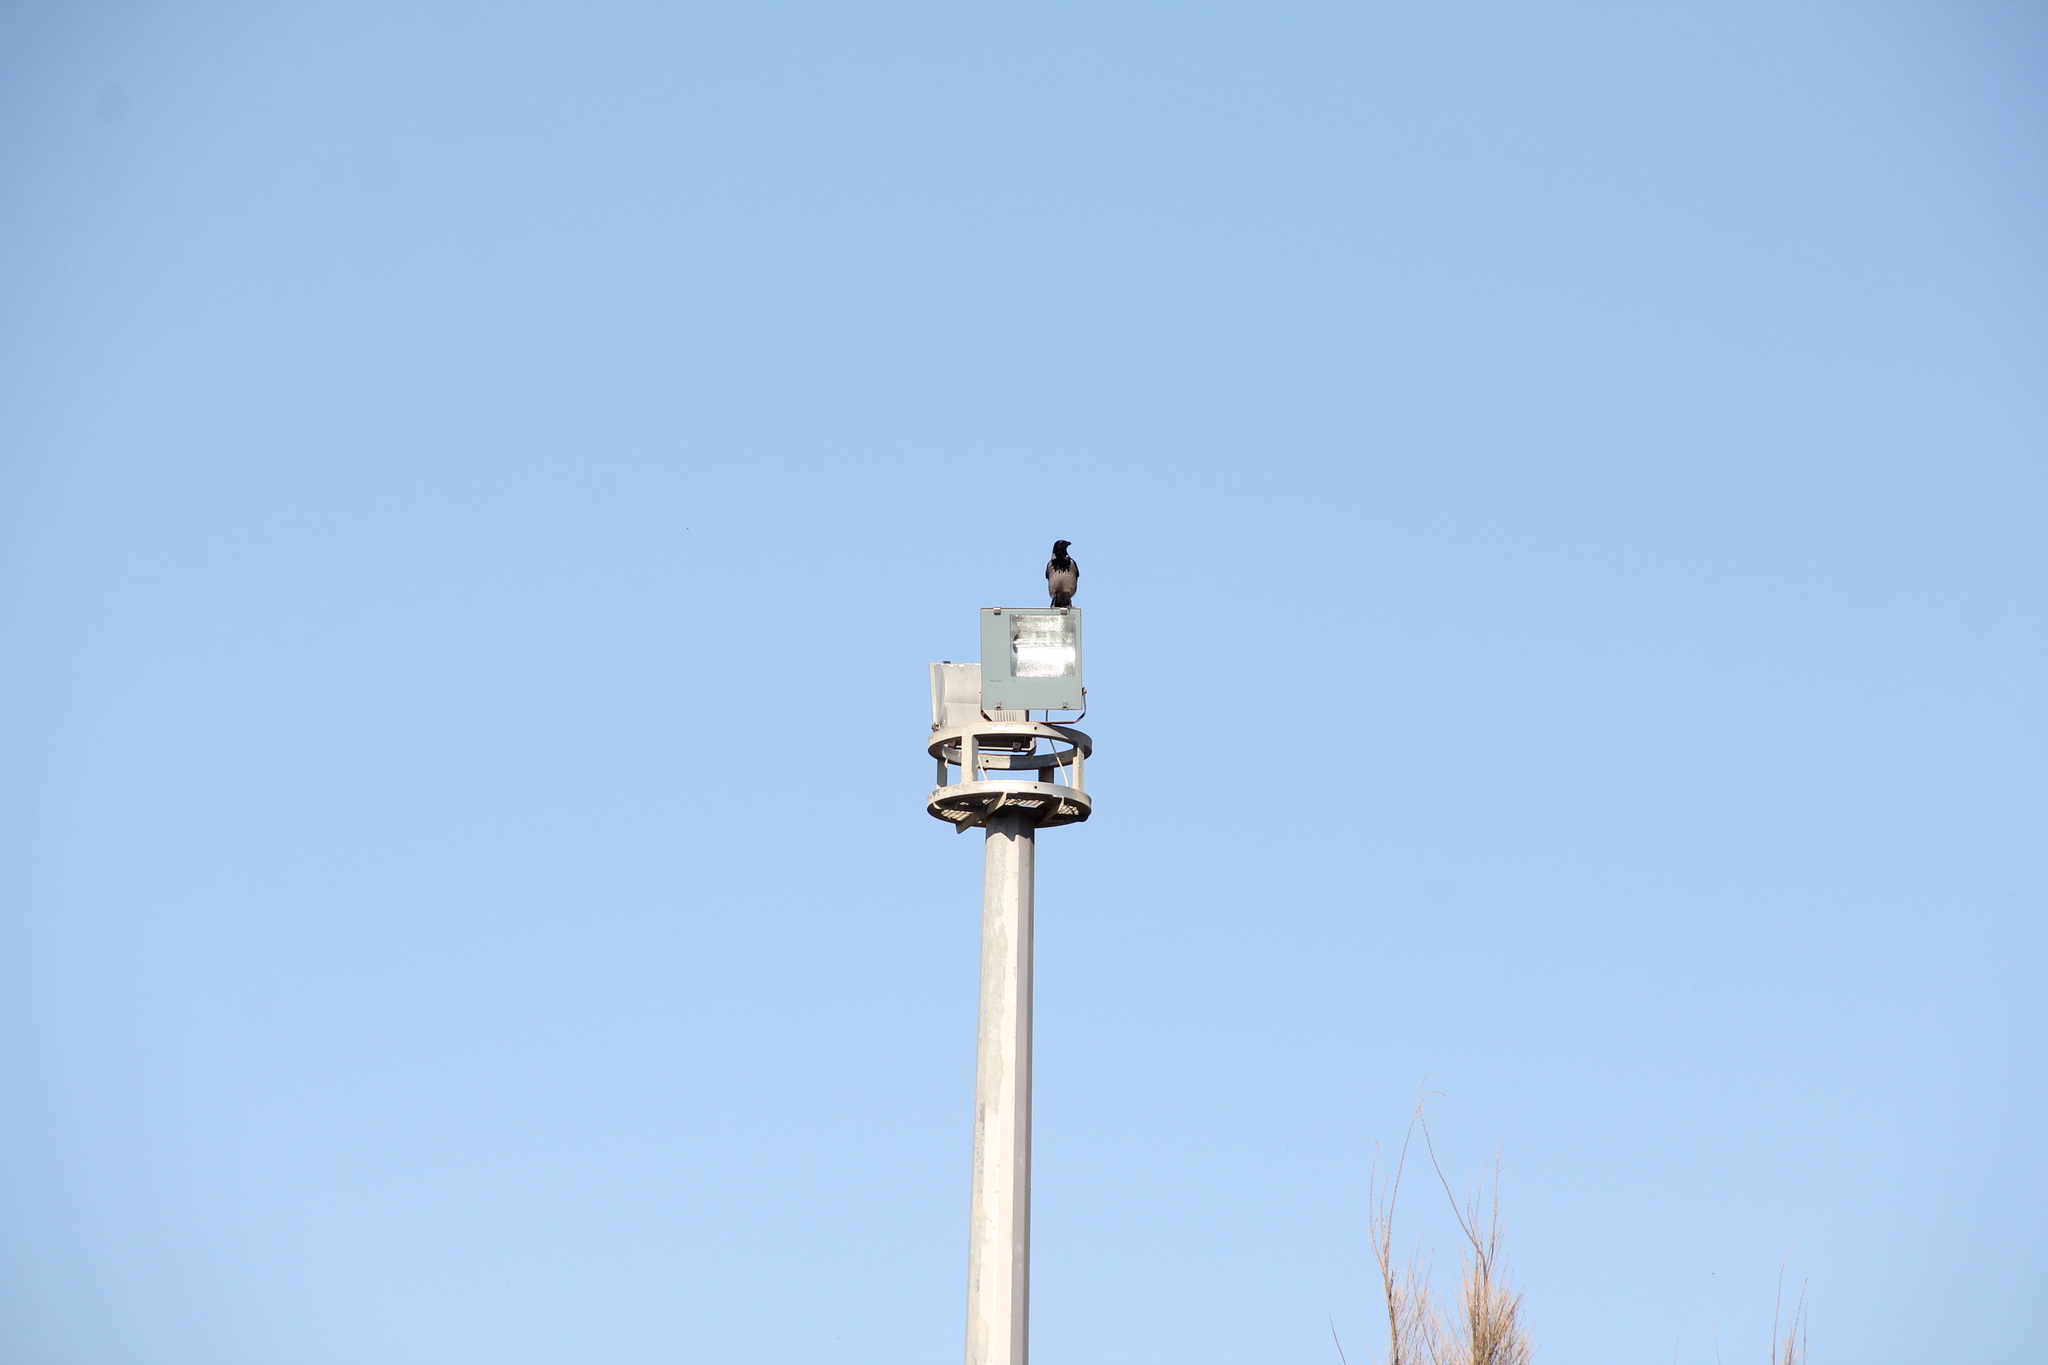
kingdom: Animalia
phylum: Chordata
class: Aves
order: Passeriformes
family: Corvidae
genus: Corvus
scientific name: Corvus cornix
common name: Hooded crow
